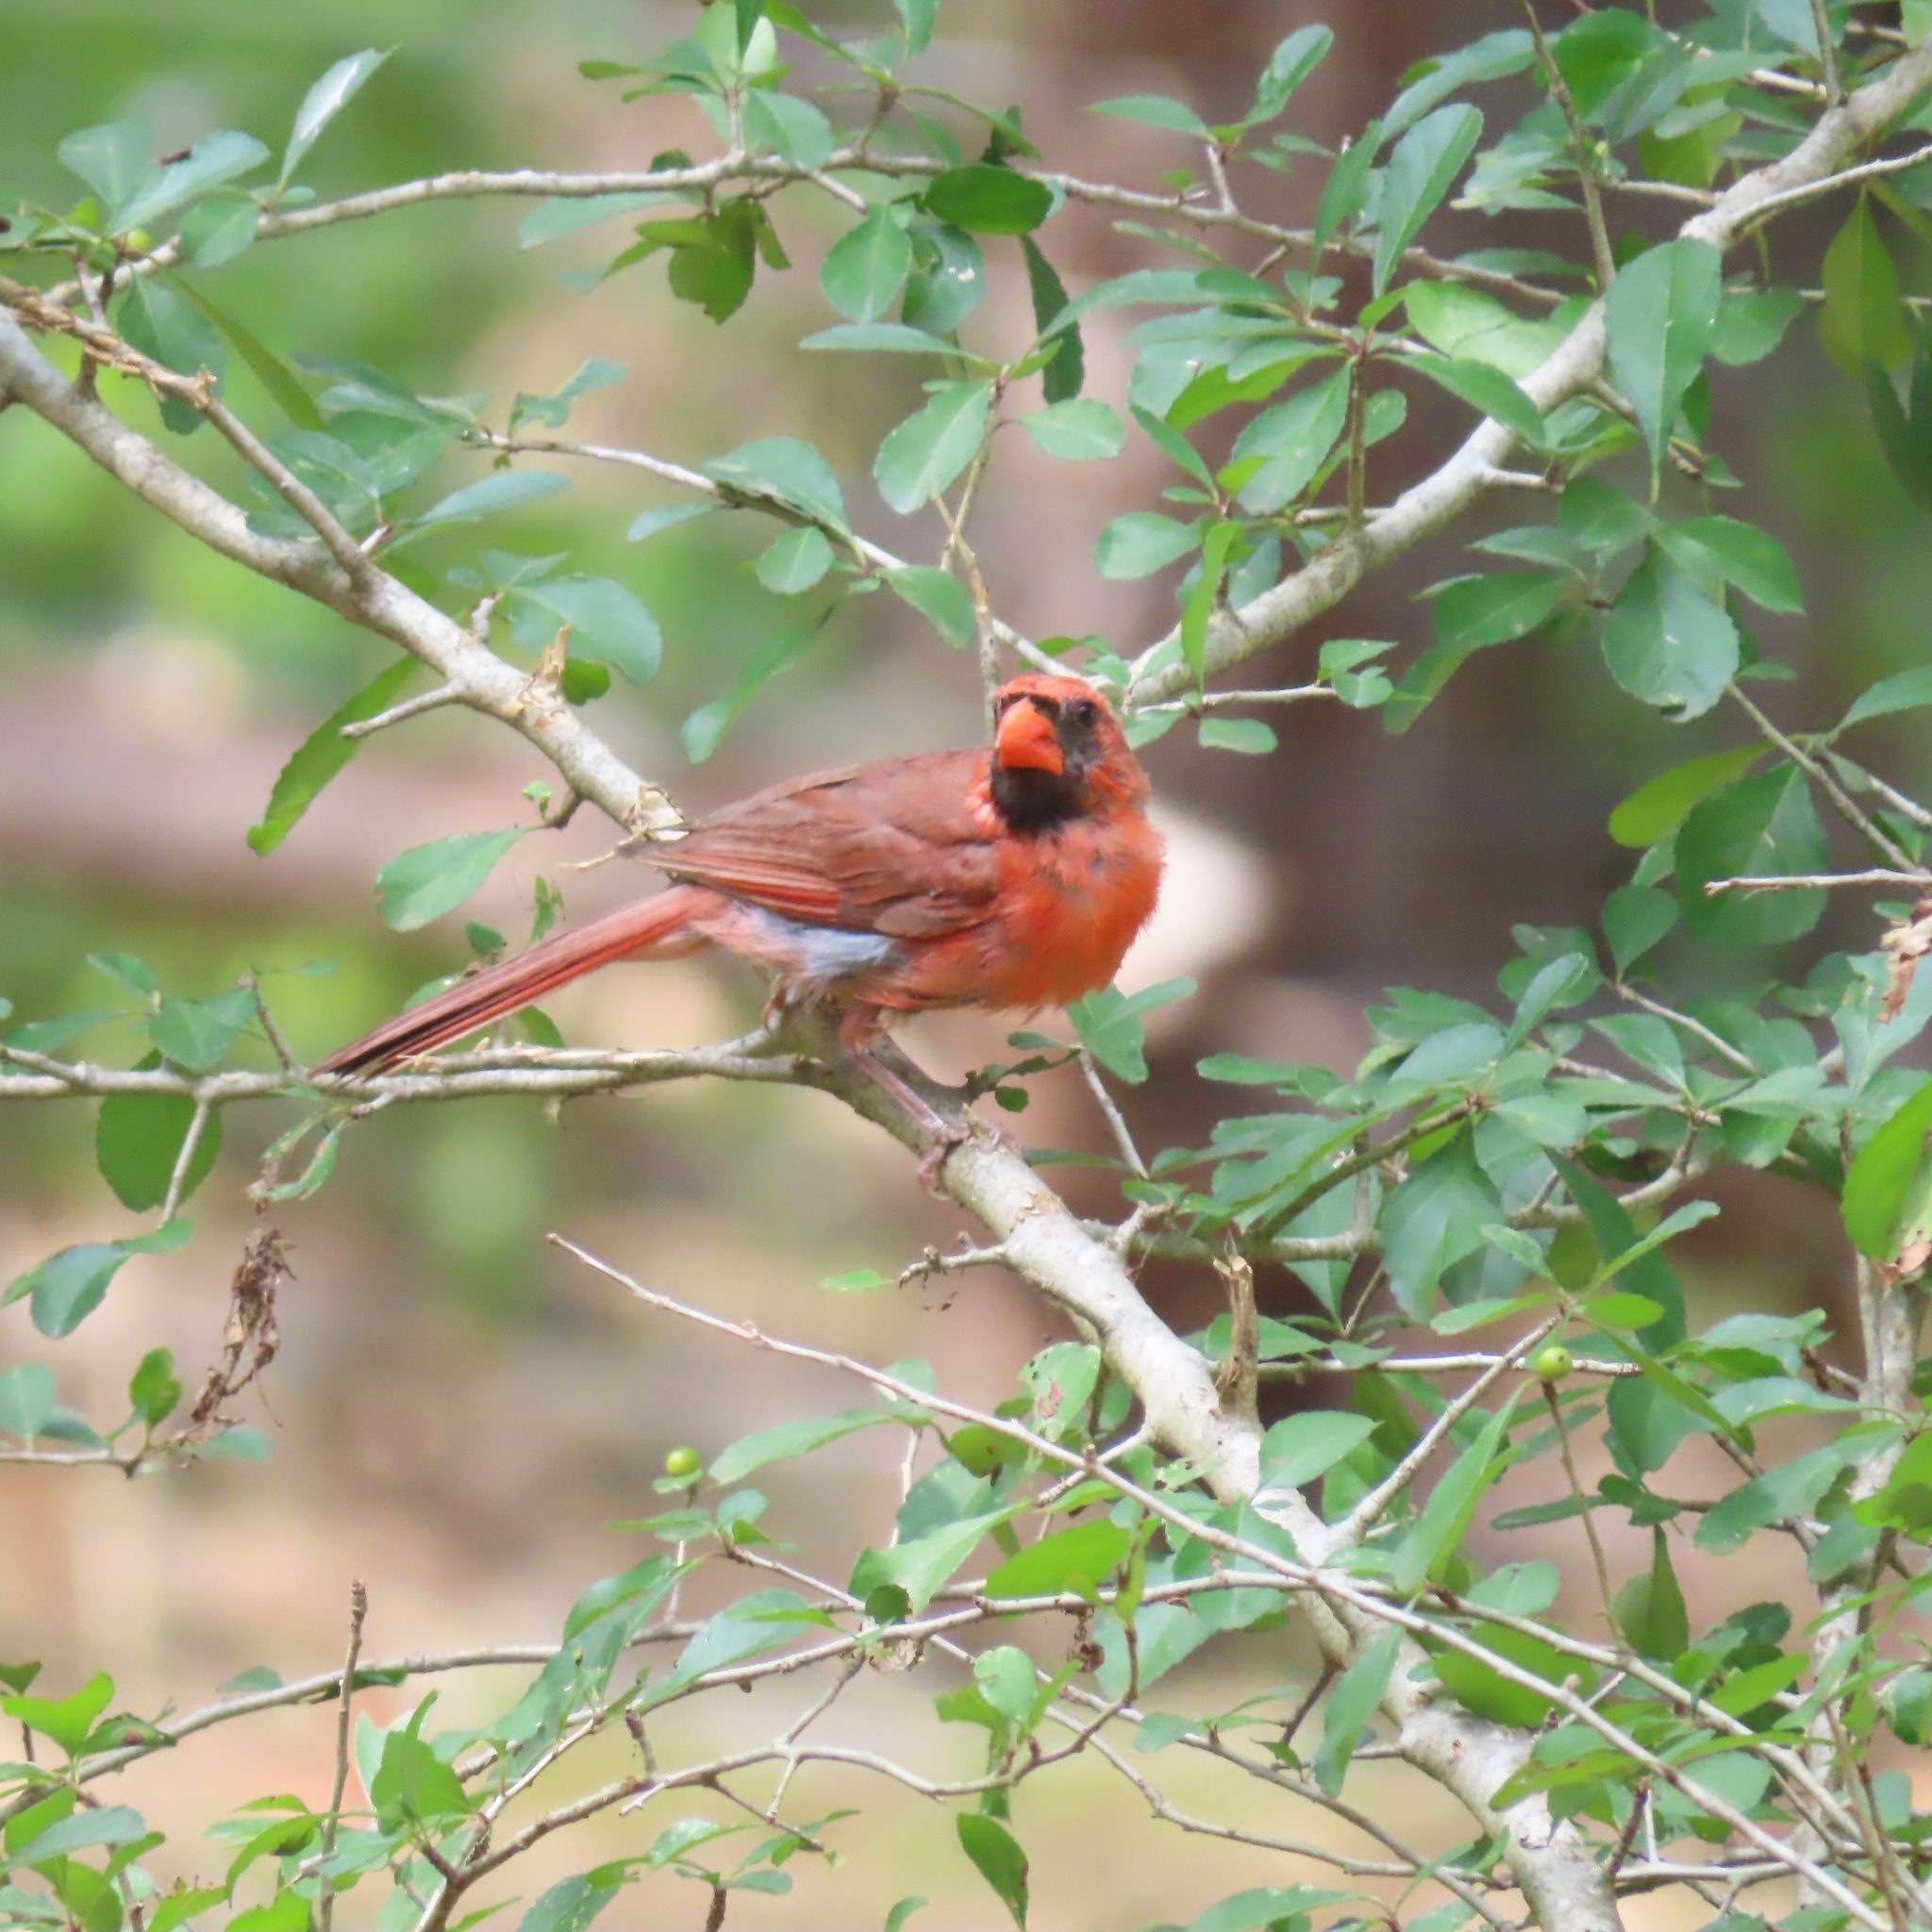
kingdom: Animalia
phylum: Chordata
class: Aves
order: Passeriformes
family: Cardinalidae
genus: Cardinalis
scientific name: Cardinalis cardinalis
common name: Northern cardinal
